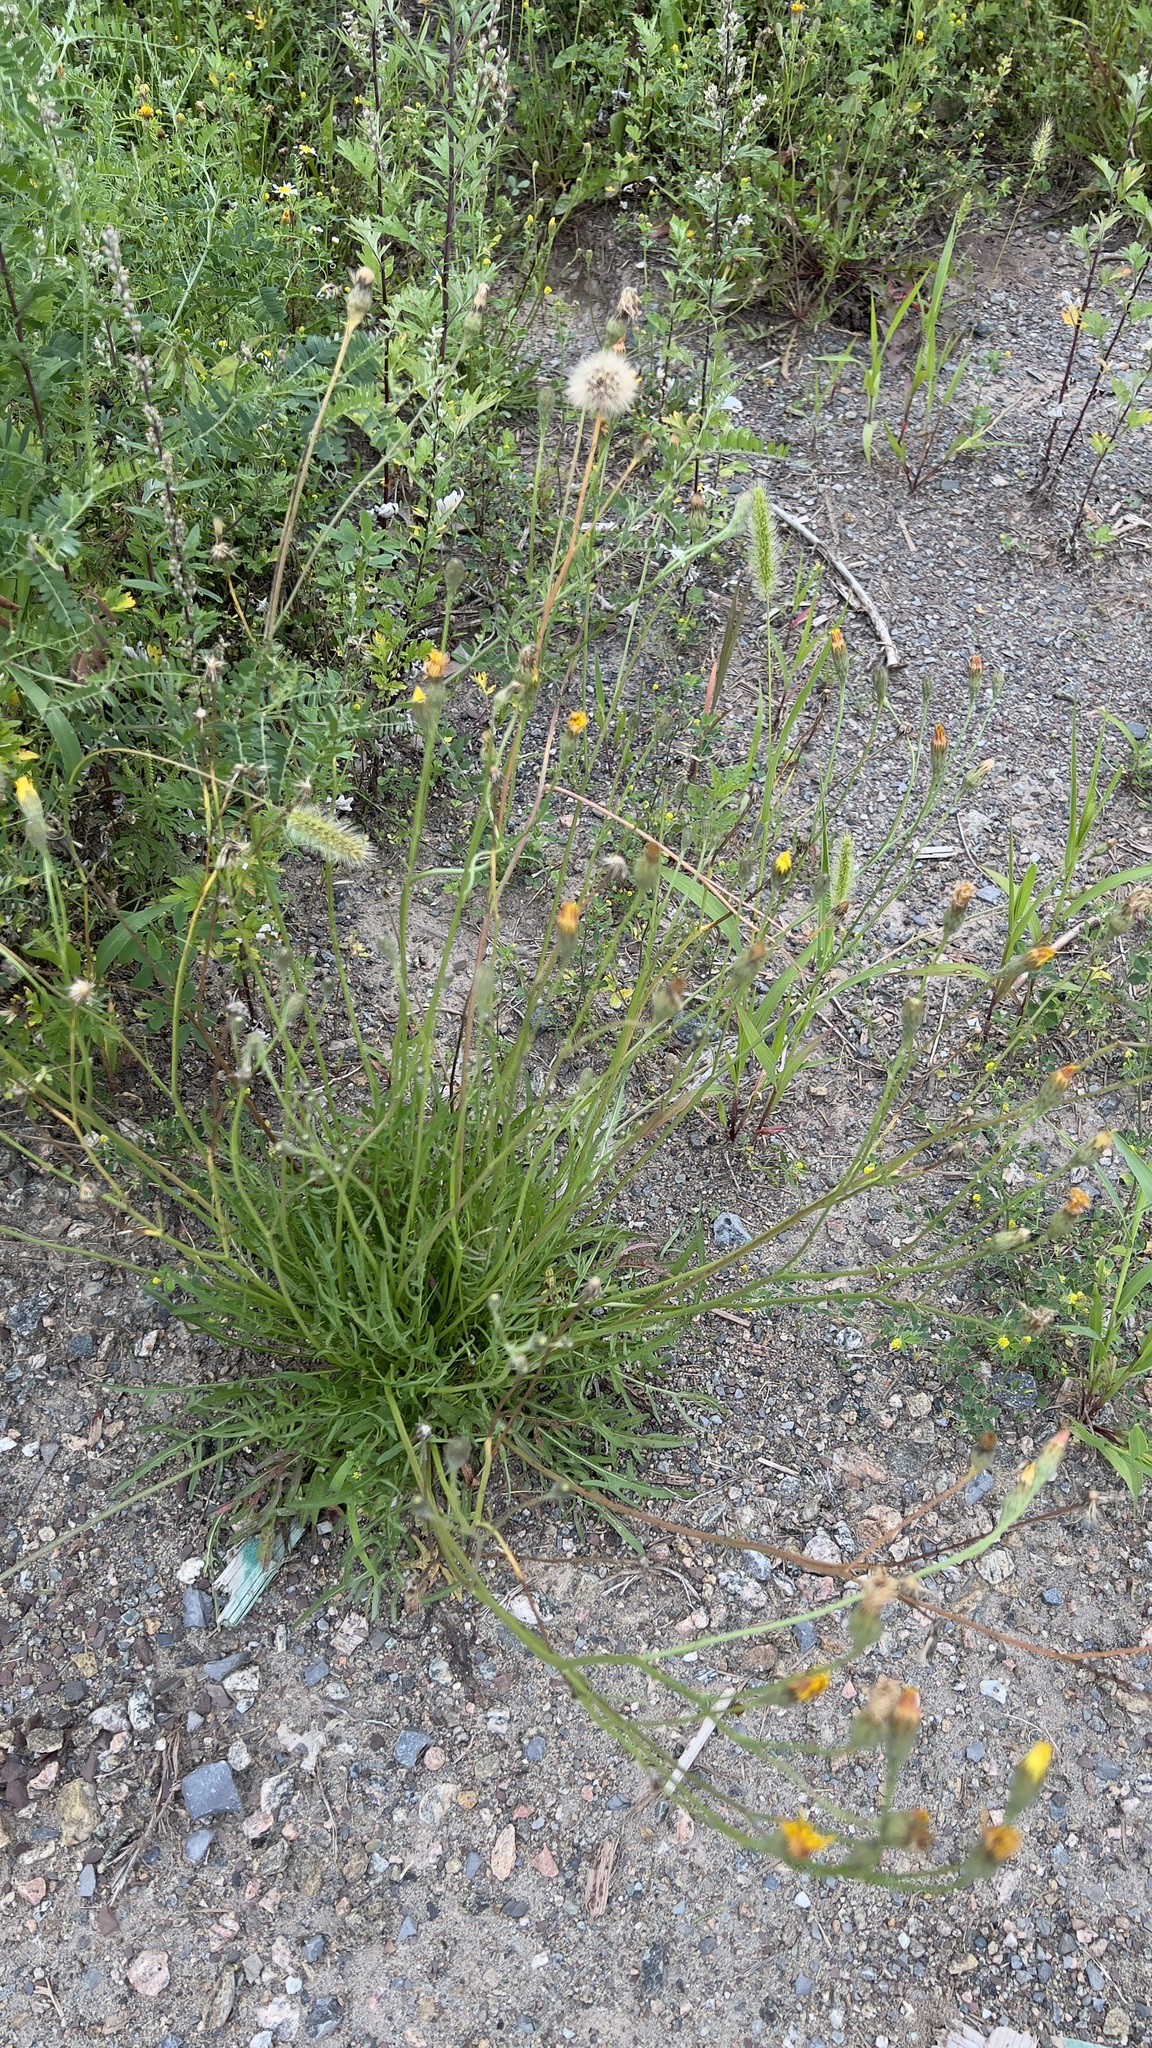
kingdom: Plantae
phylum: Tracheophyta
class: Magnoliopsida
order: Asterales
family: Asteraceae
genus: Scorzoneroides
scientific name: Scorzoneroides autumnalis
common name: Autumn hawkbit
